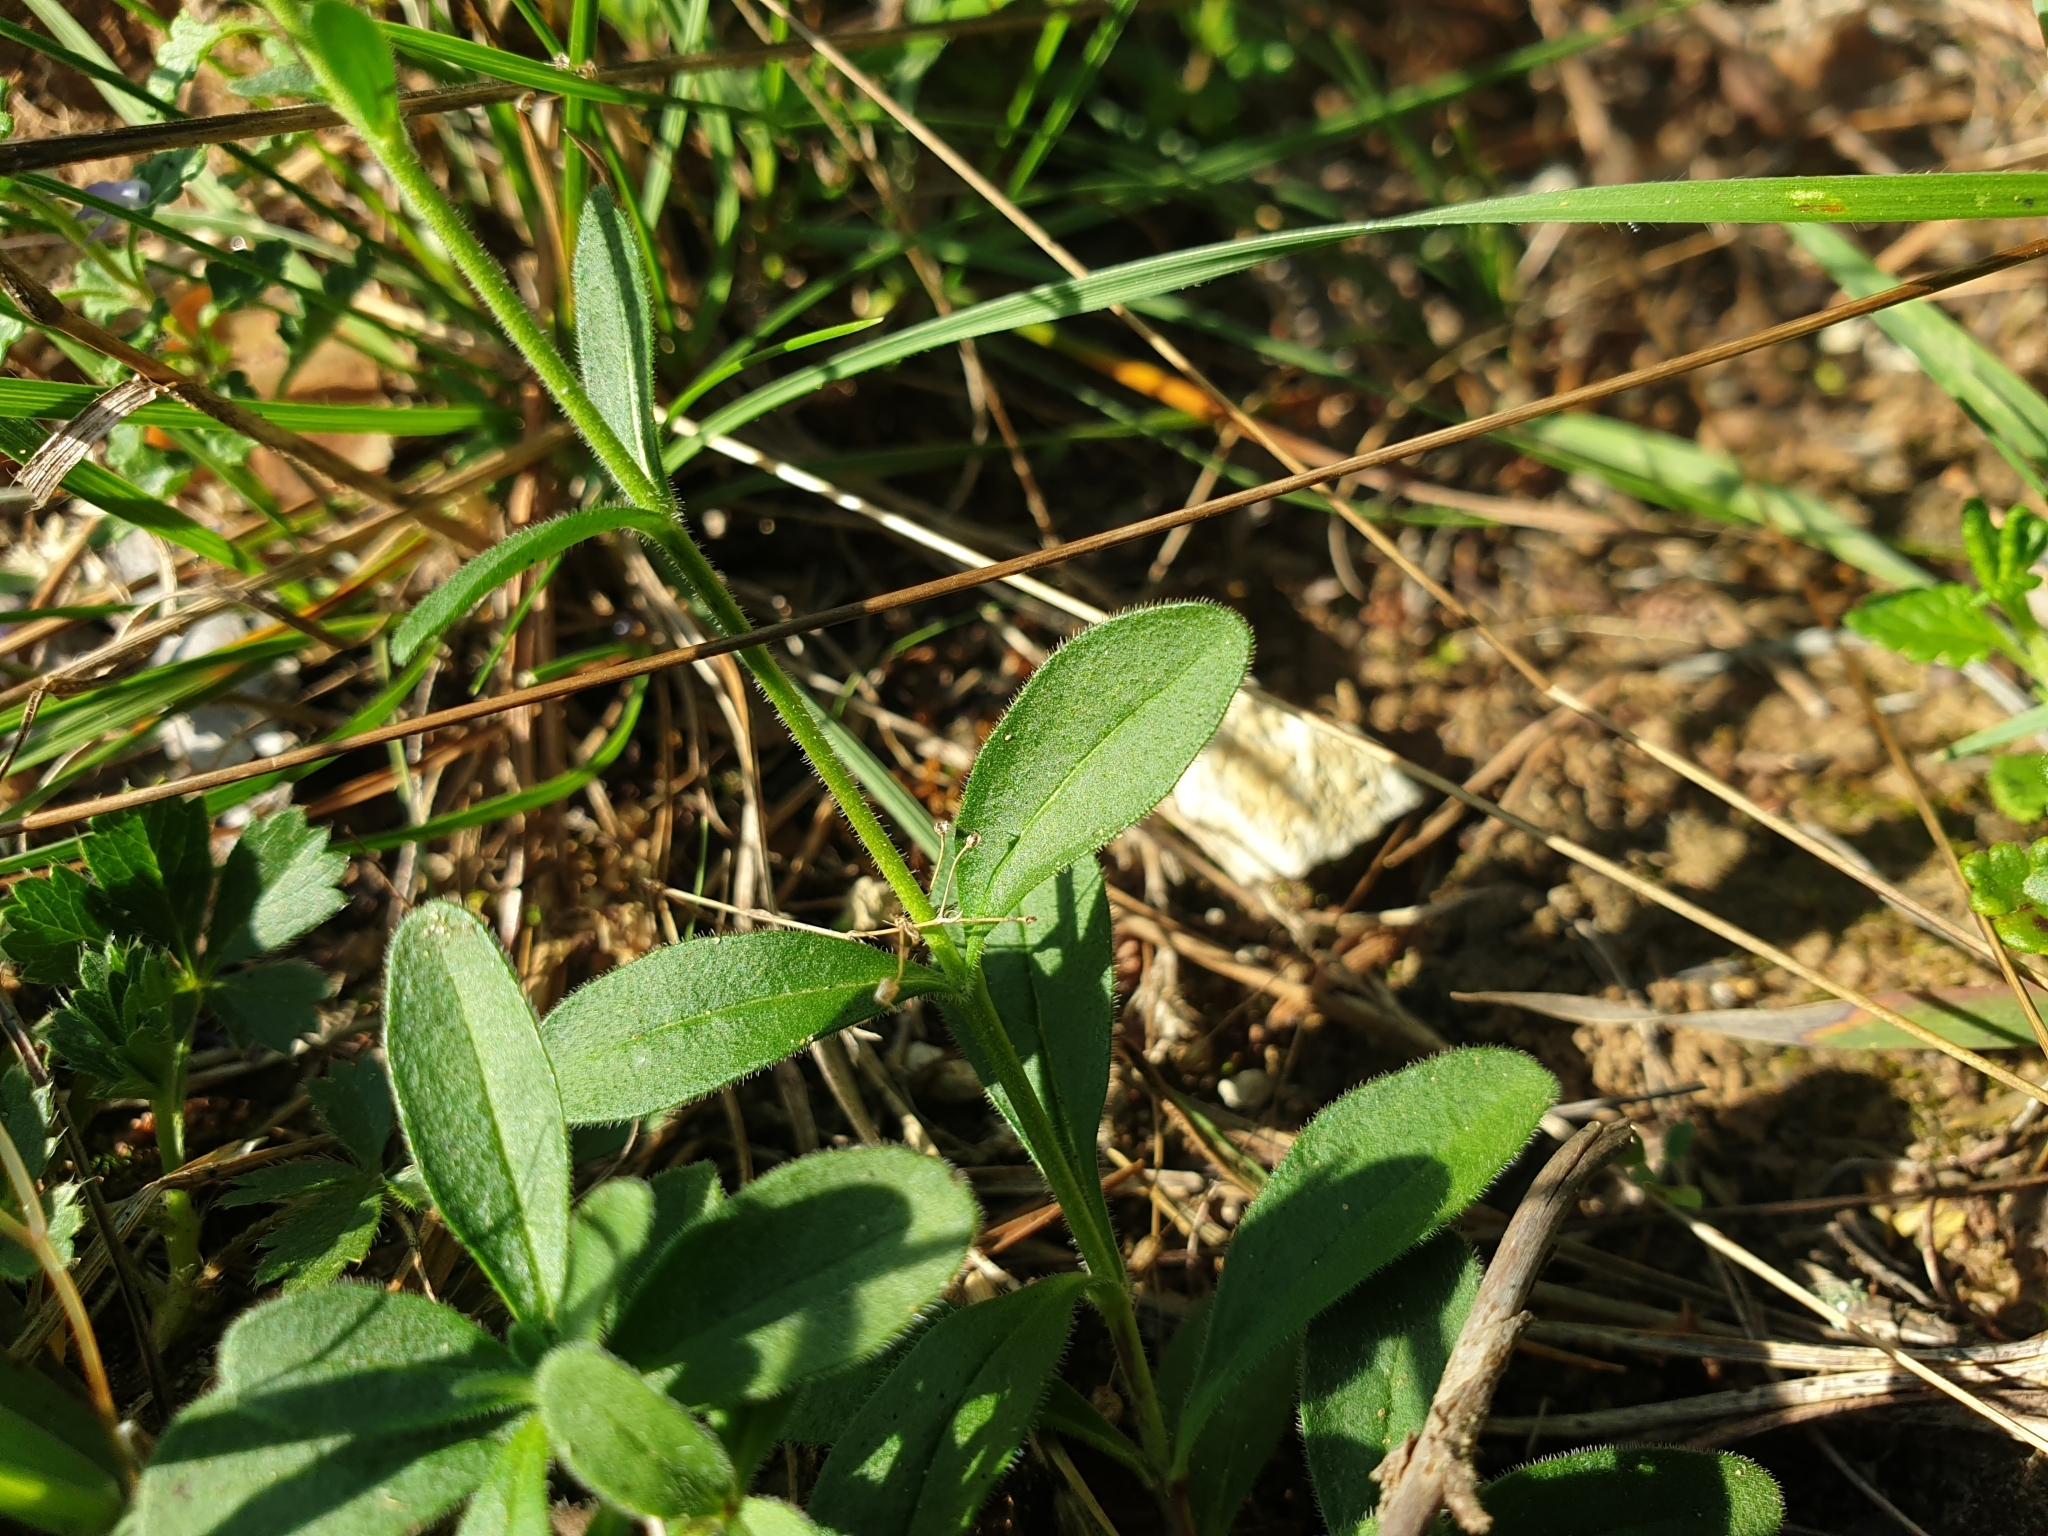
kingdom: Plantae
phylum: Tracheophyta
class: Magnoliopsida
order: Lamiales
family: Plantaginaceae
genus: Veronica
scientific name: Veronica spicata
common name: Spiked speedwell
